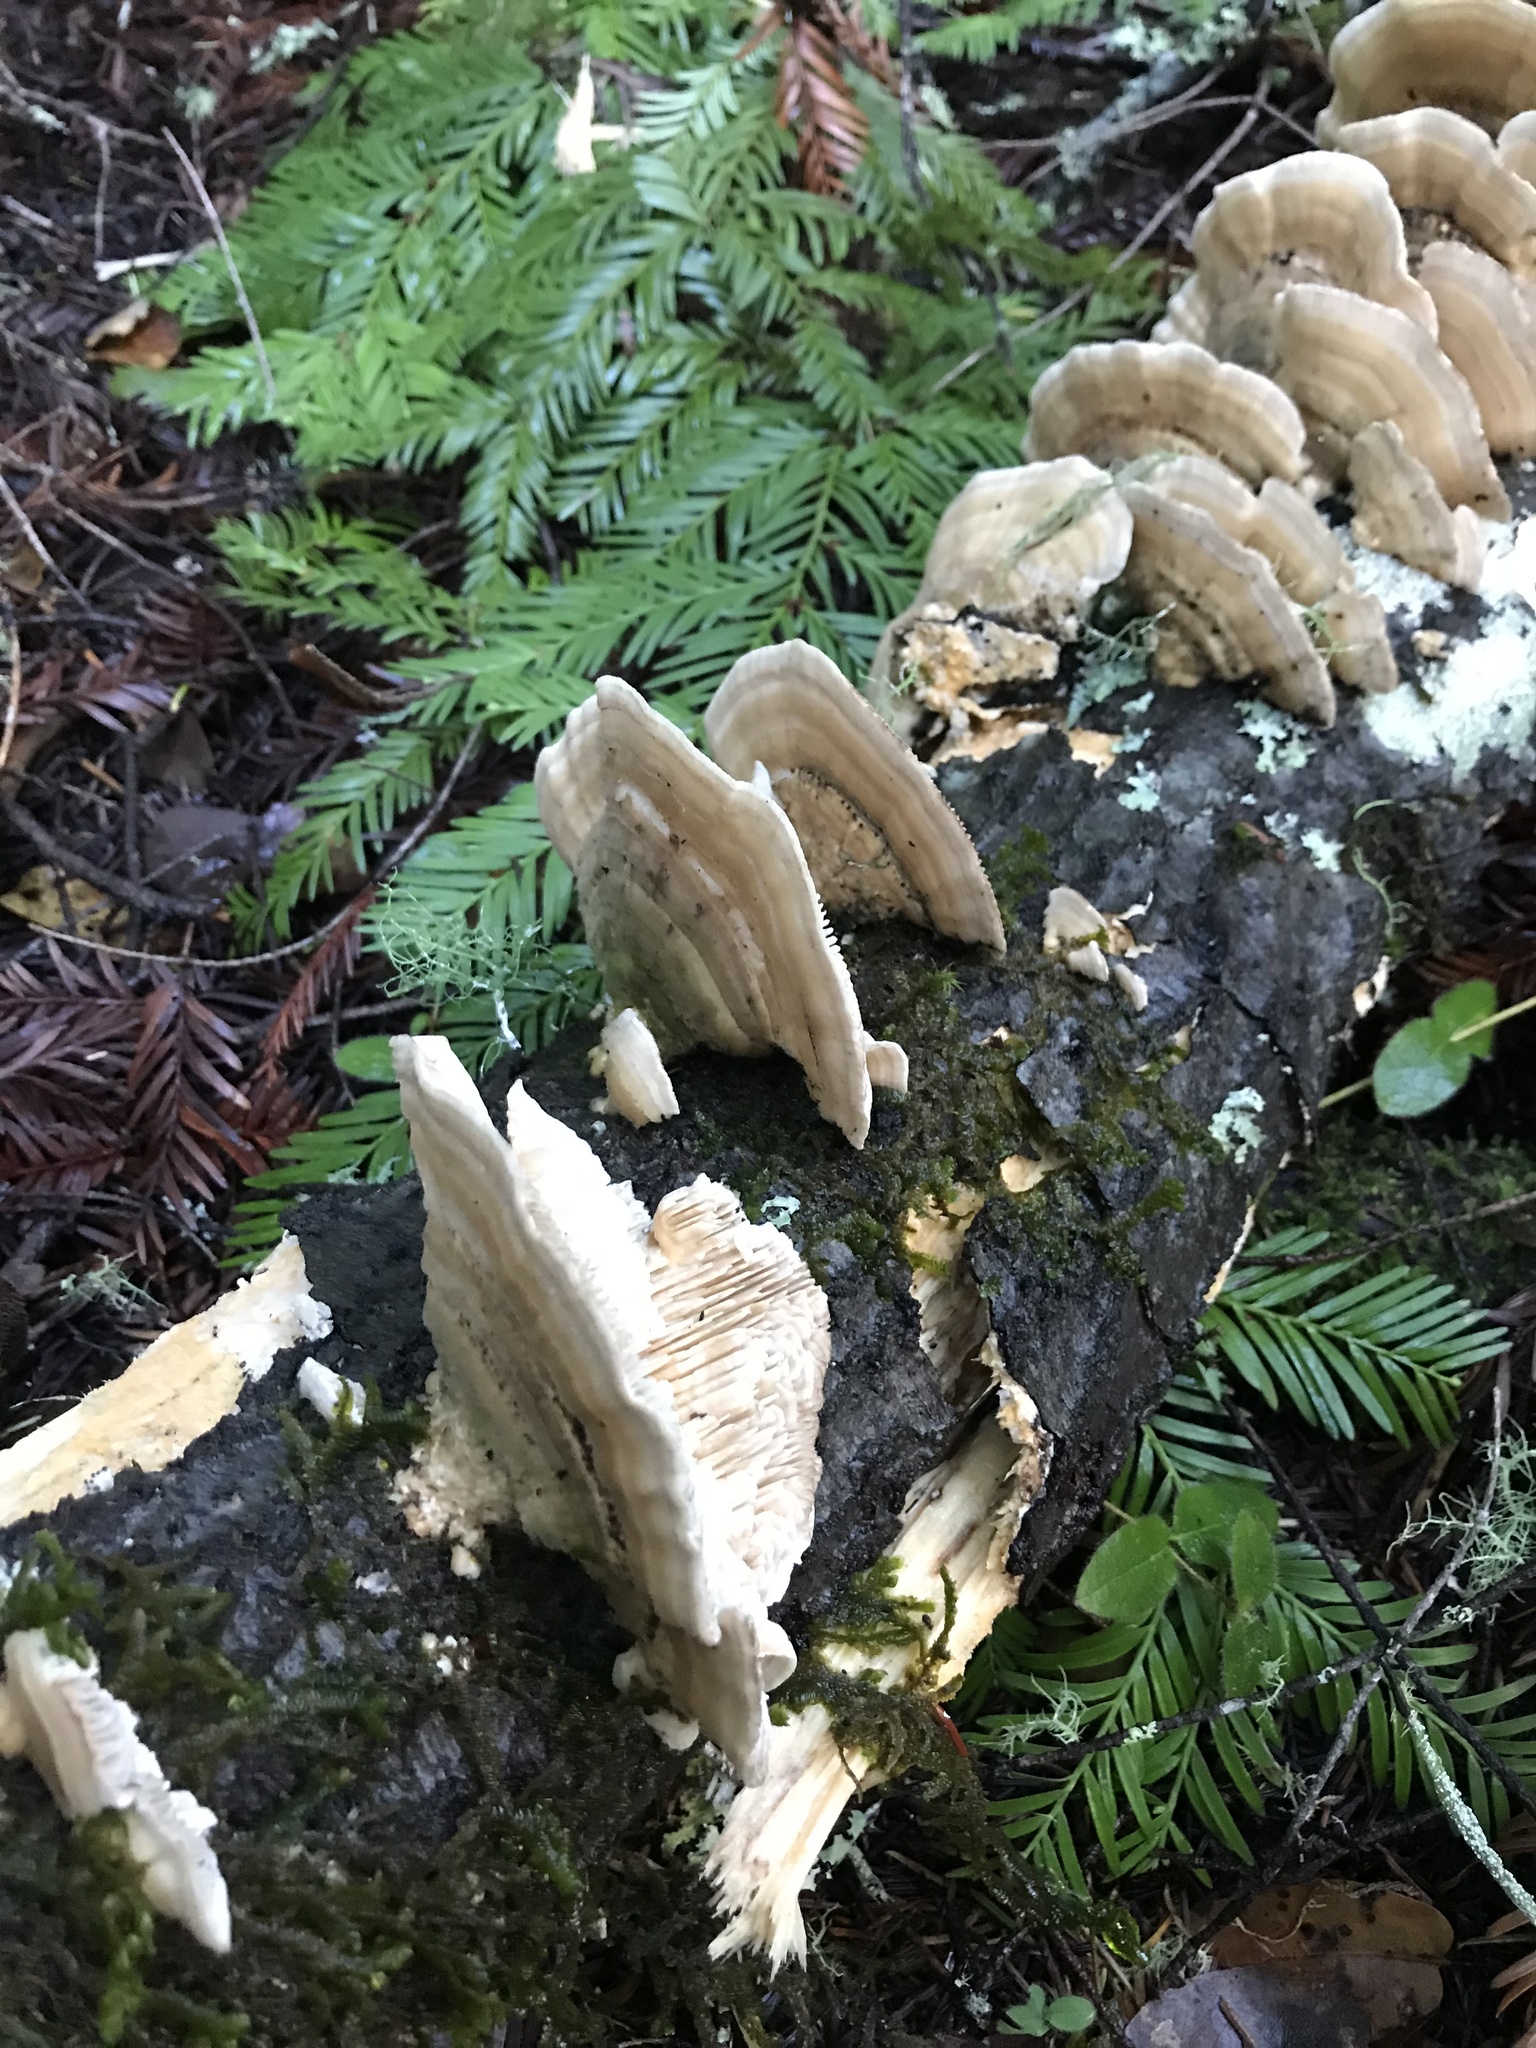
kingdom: Fungi
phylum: Basidiomycota
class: Agaricomycetes
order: Polyporales
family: Polyporaceae
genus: Lenzites
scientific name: Lenzites betulinus
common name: Birch mazegill
